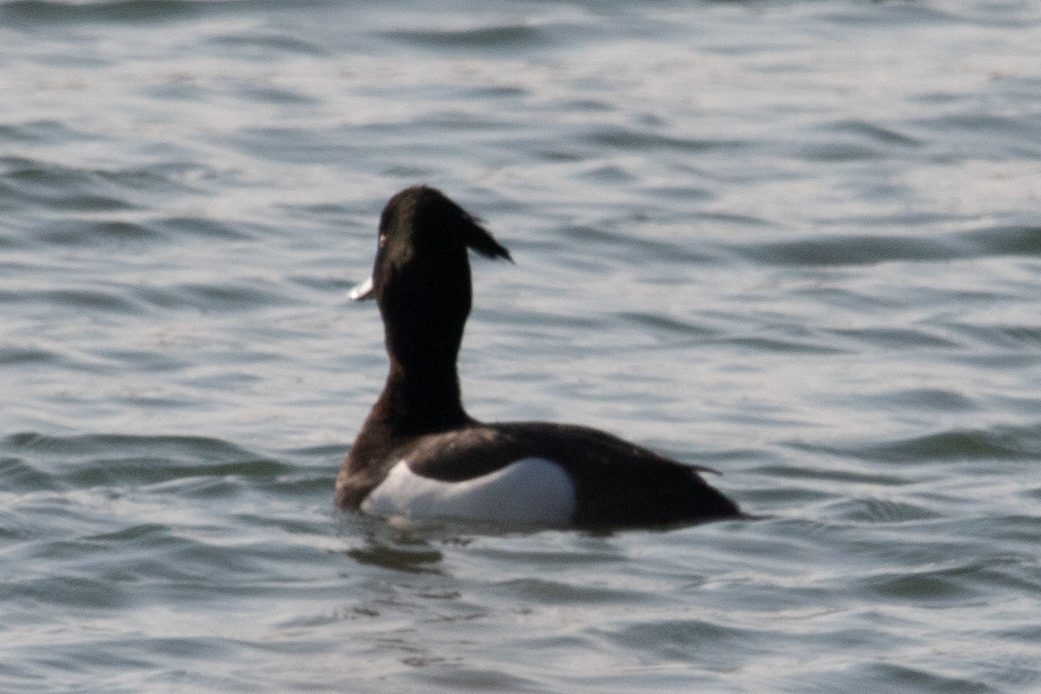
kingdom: Animalia
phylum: Chordata
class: Aves
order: Anseriformes
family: Anatidae
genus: Aythya
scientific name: Aythya fuligula
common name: Tufted duck
